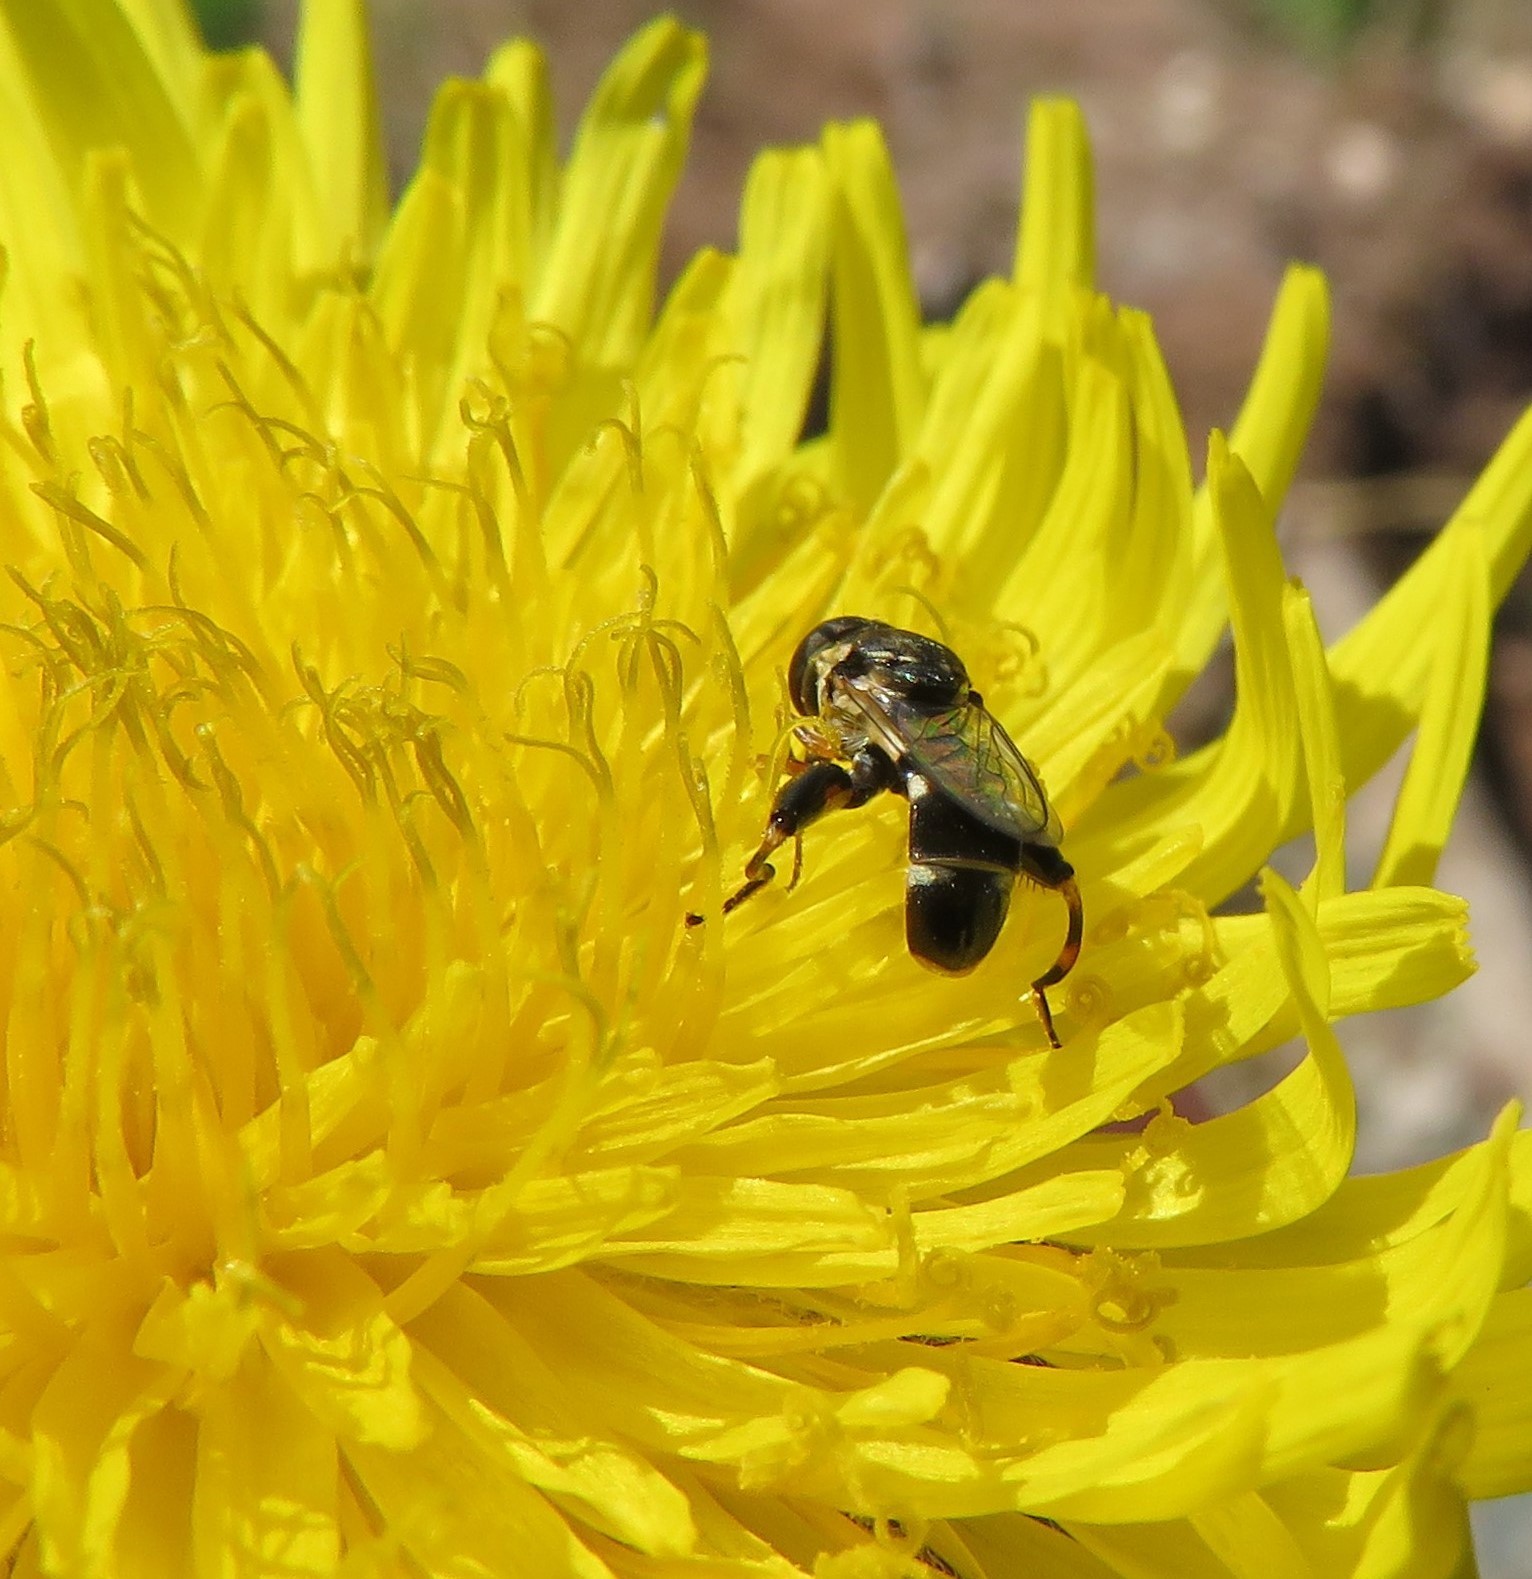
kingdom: Animalia
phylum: Arthropoda
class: Insecta
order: Diptera
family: Syrphidae
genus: Syritta
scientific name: Syritta pipiens
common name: Hover fly
